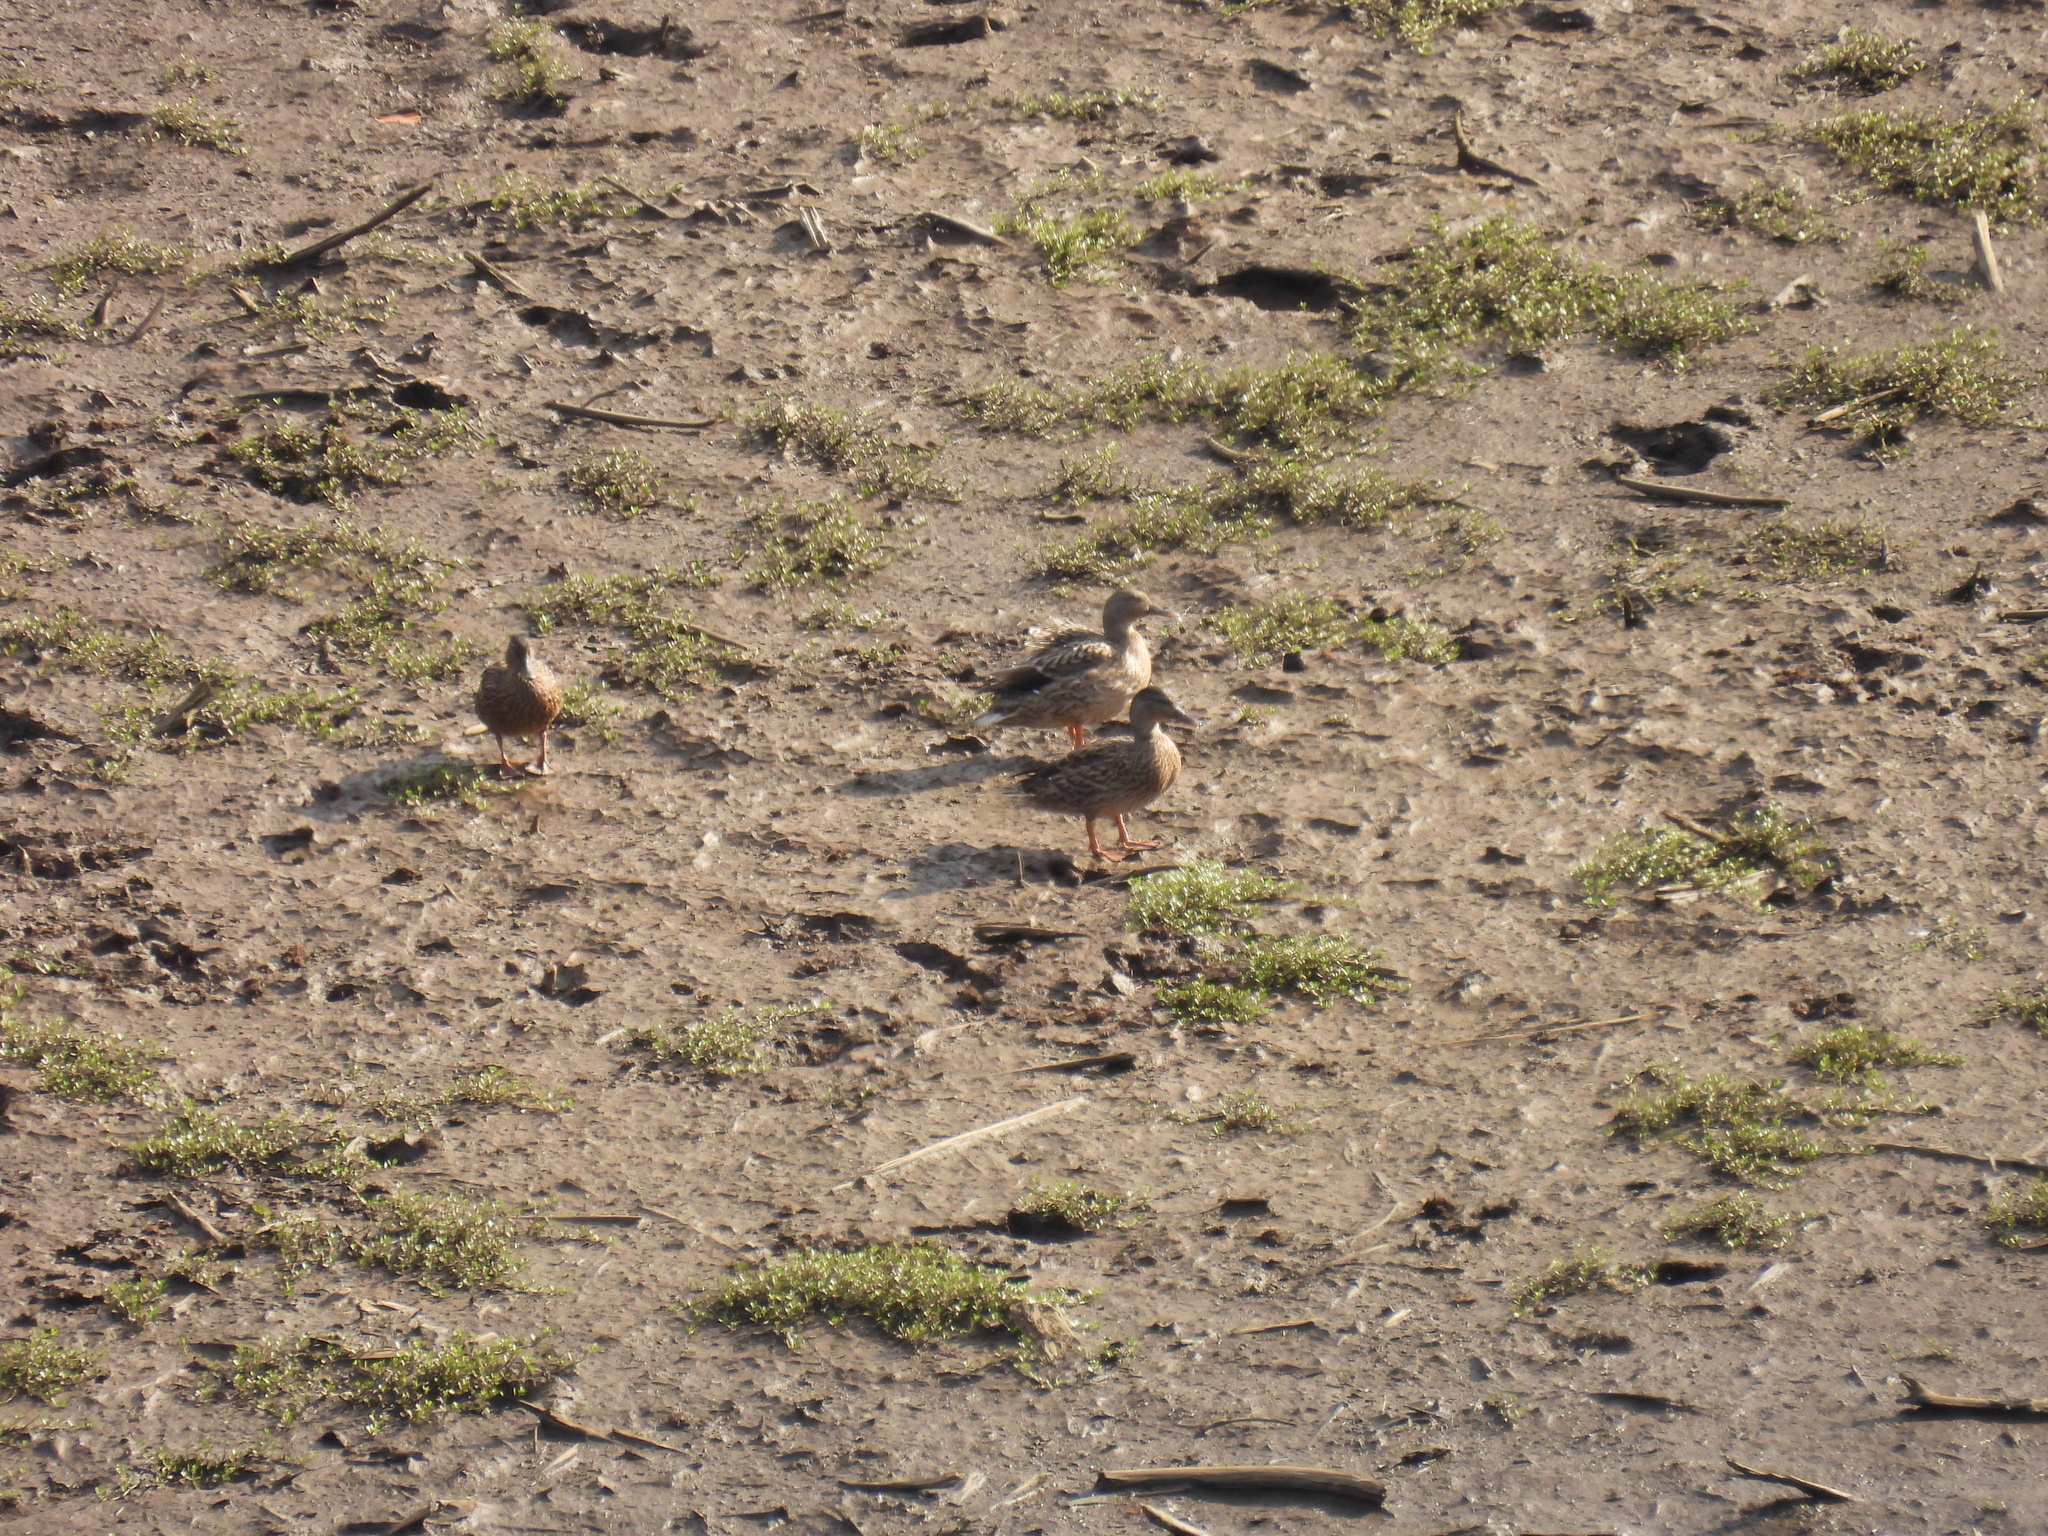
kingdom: Animalia
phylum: Chordata
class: Aves
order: Anseriformes
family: Anatidae
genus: Anas
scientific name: Anas wyvilliana
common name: Hawaiian duck
